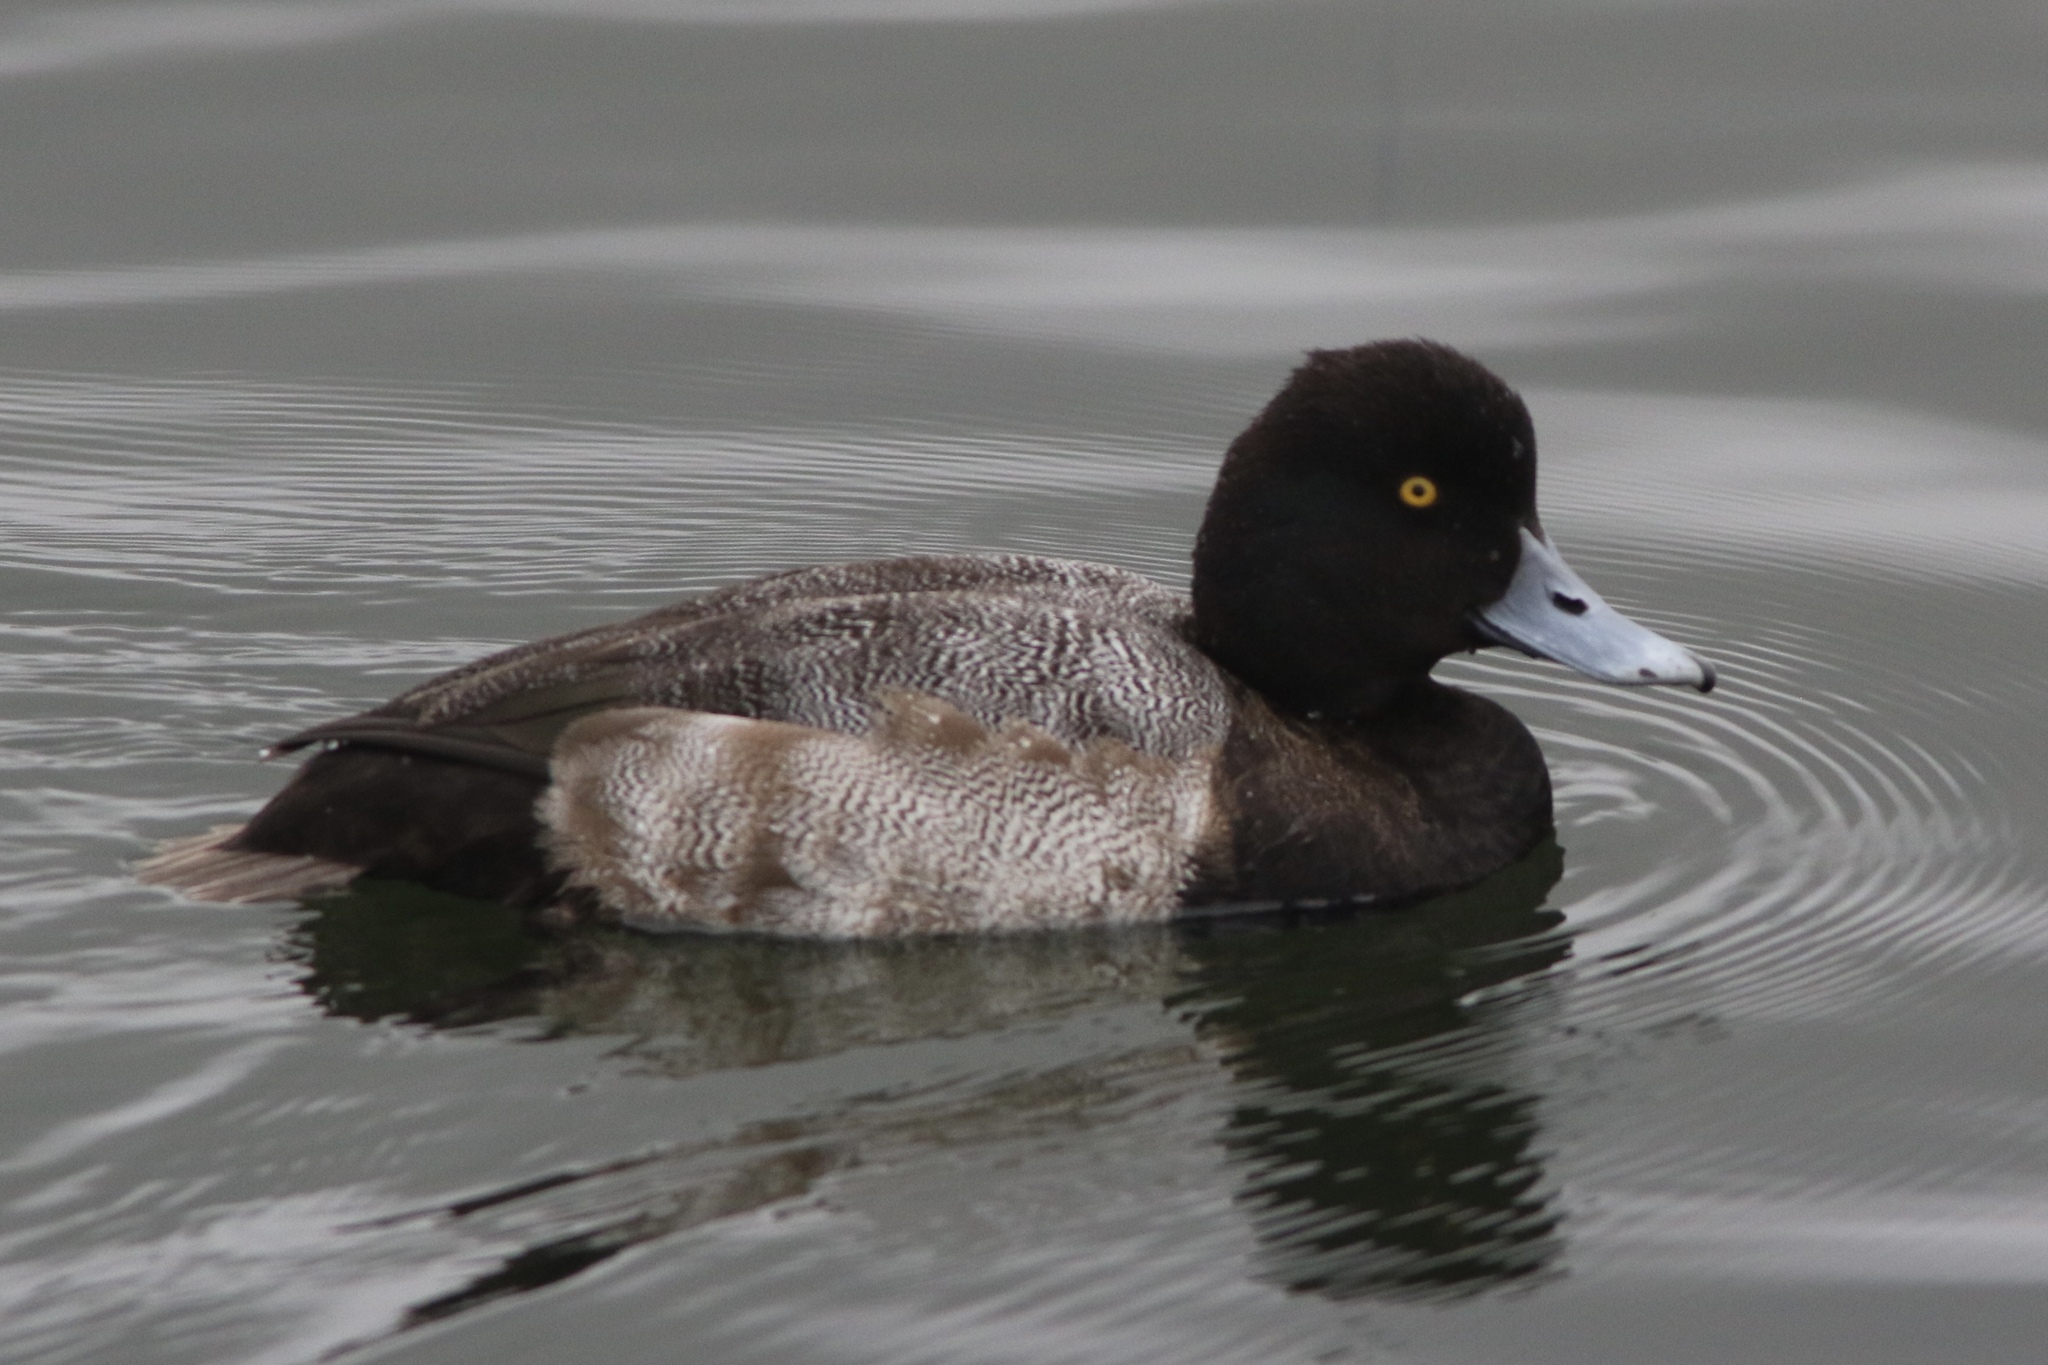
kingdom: Animalia
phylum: Chordata
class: Aves
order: Anseriformes
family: Anatidae
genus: Aythya
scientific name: Aythya affinis
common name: Lesser scaup
